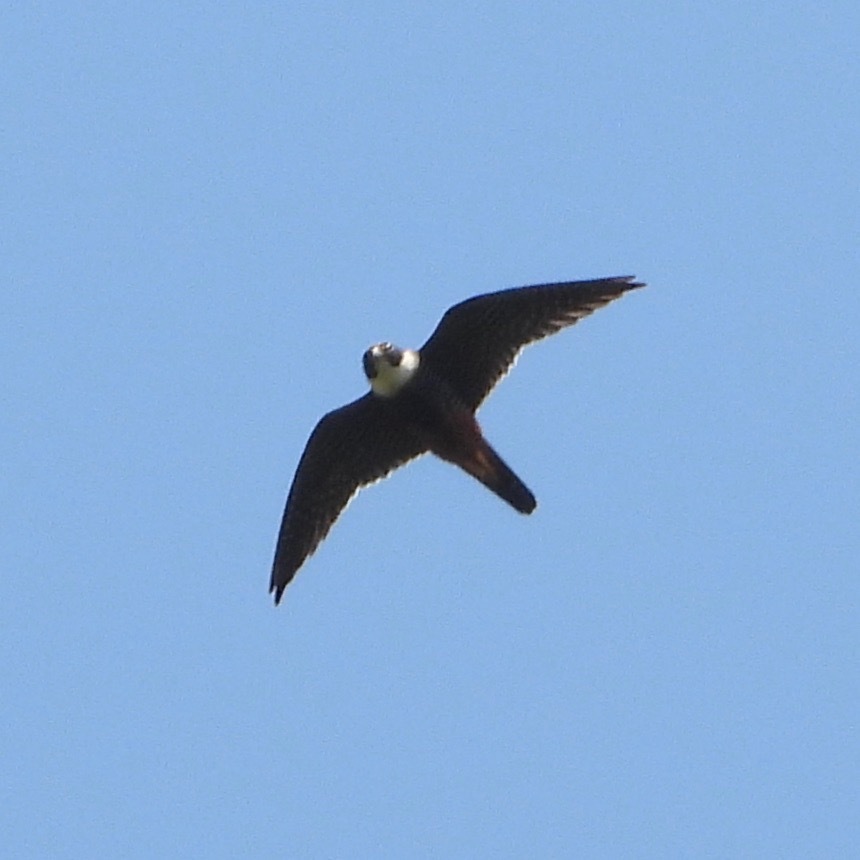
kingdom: Animalia
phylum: Chordata
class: Aves
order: Falconiformes
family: Falconidae
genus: Falco
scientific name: Falco rufigularis
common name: Bat falcon
